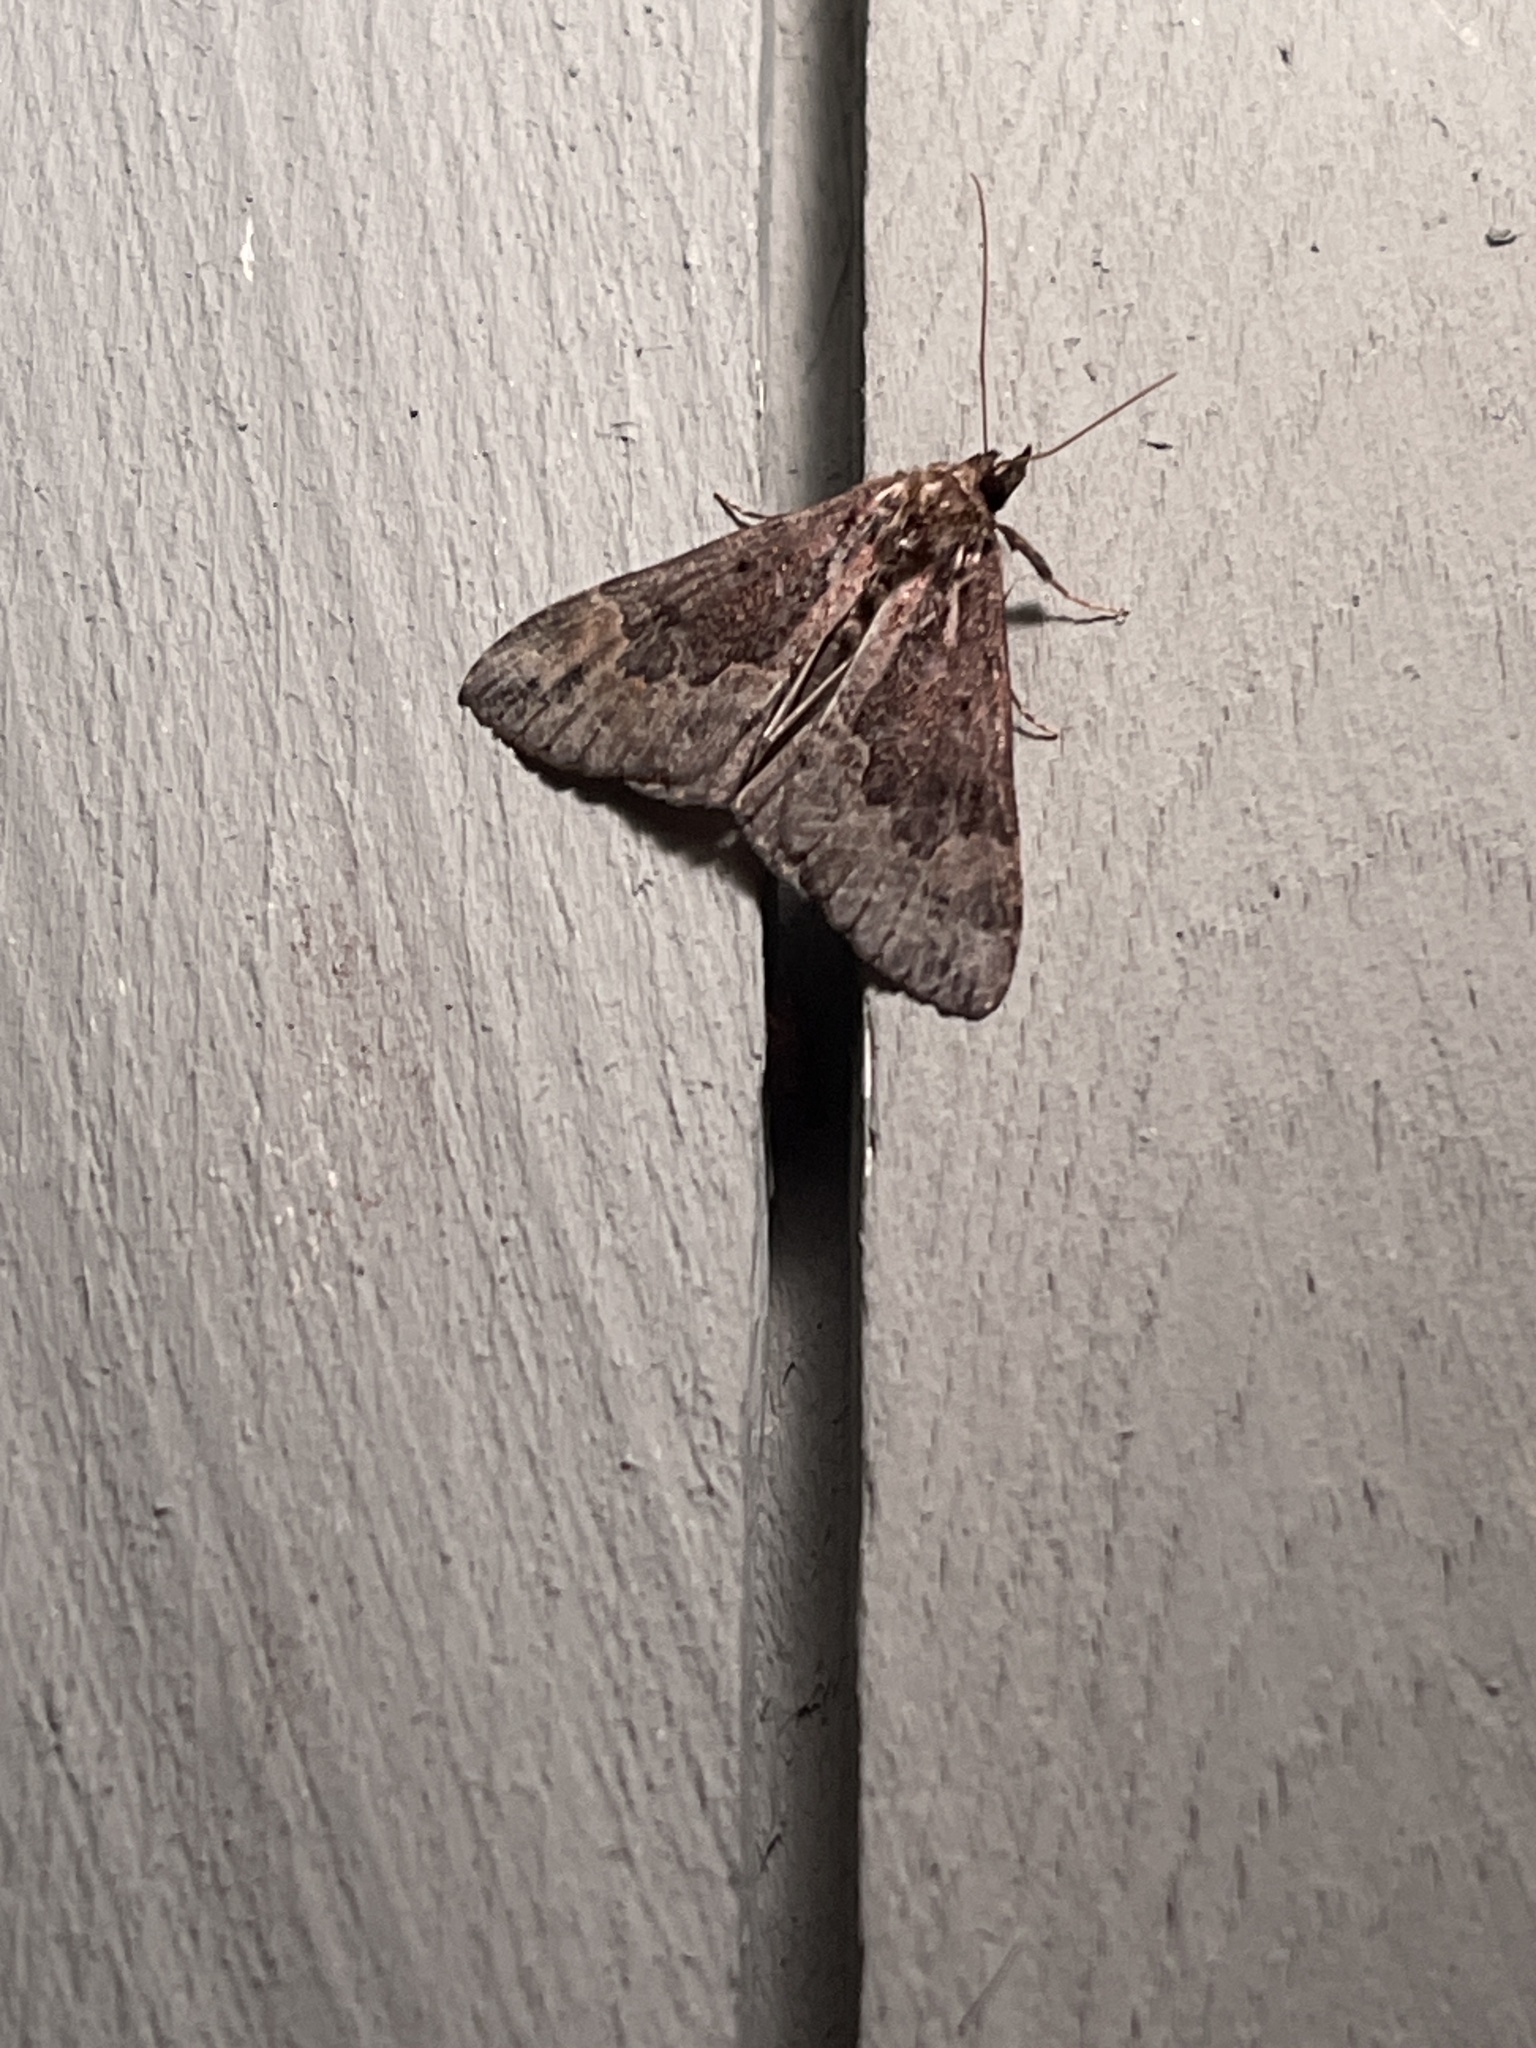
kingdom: Animalia
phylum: Arthropoda
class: Insecta
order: Lepidoptera
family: Erebidae
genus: Hypena
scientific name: Hypena baltimoralis
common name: Baltimore snout
